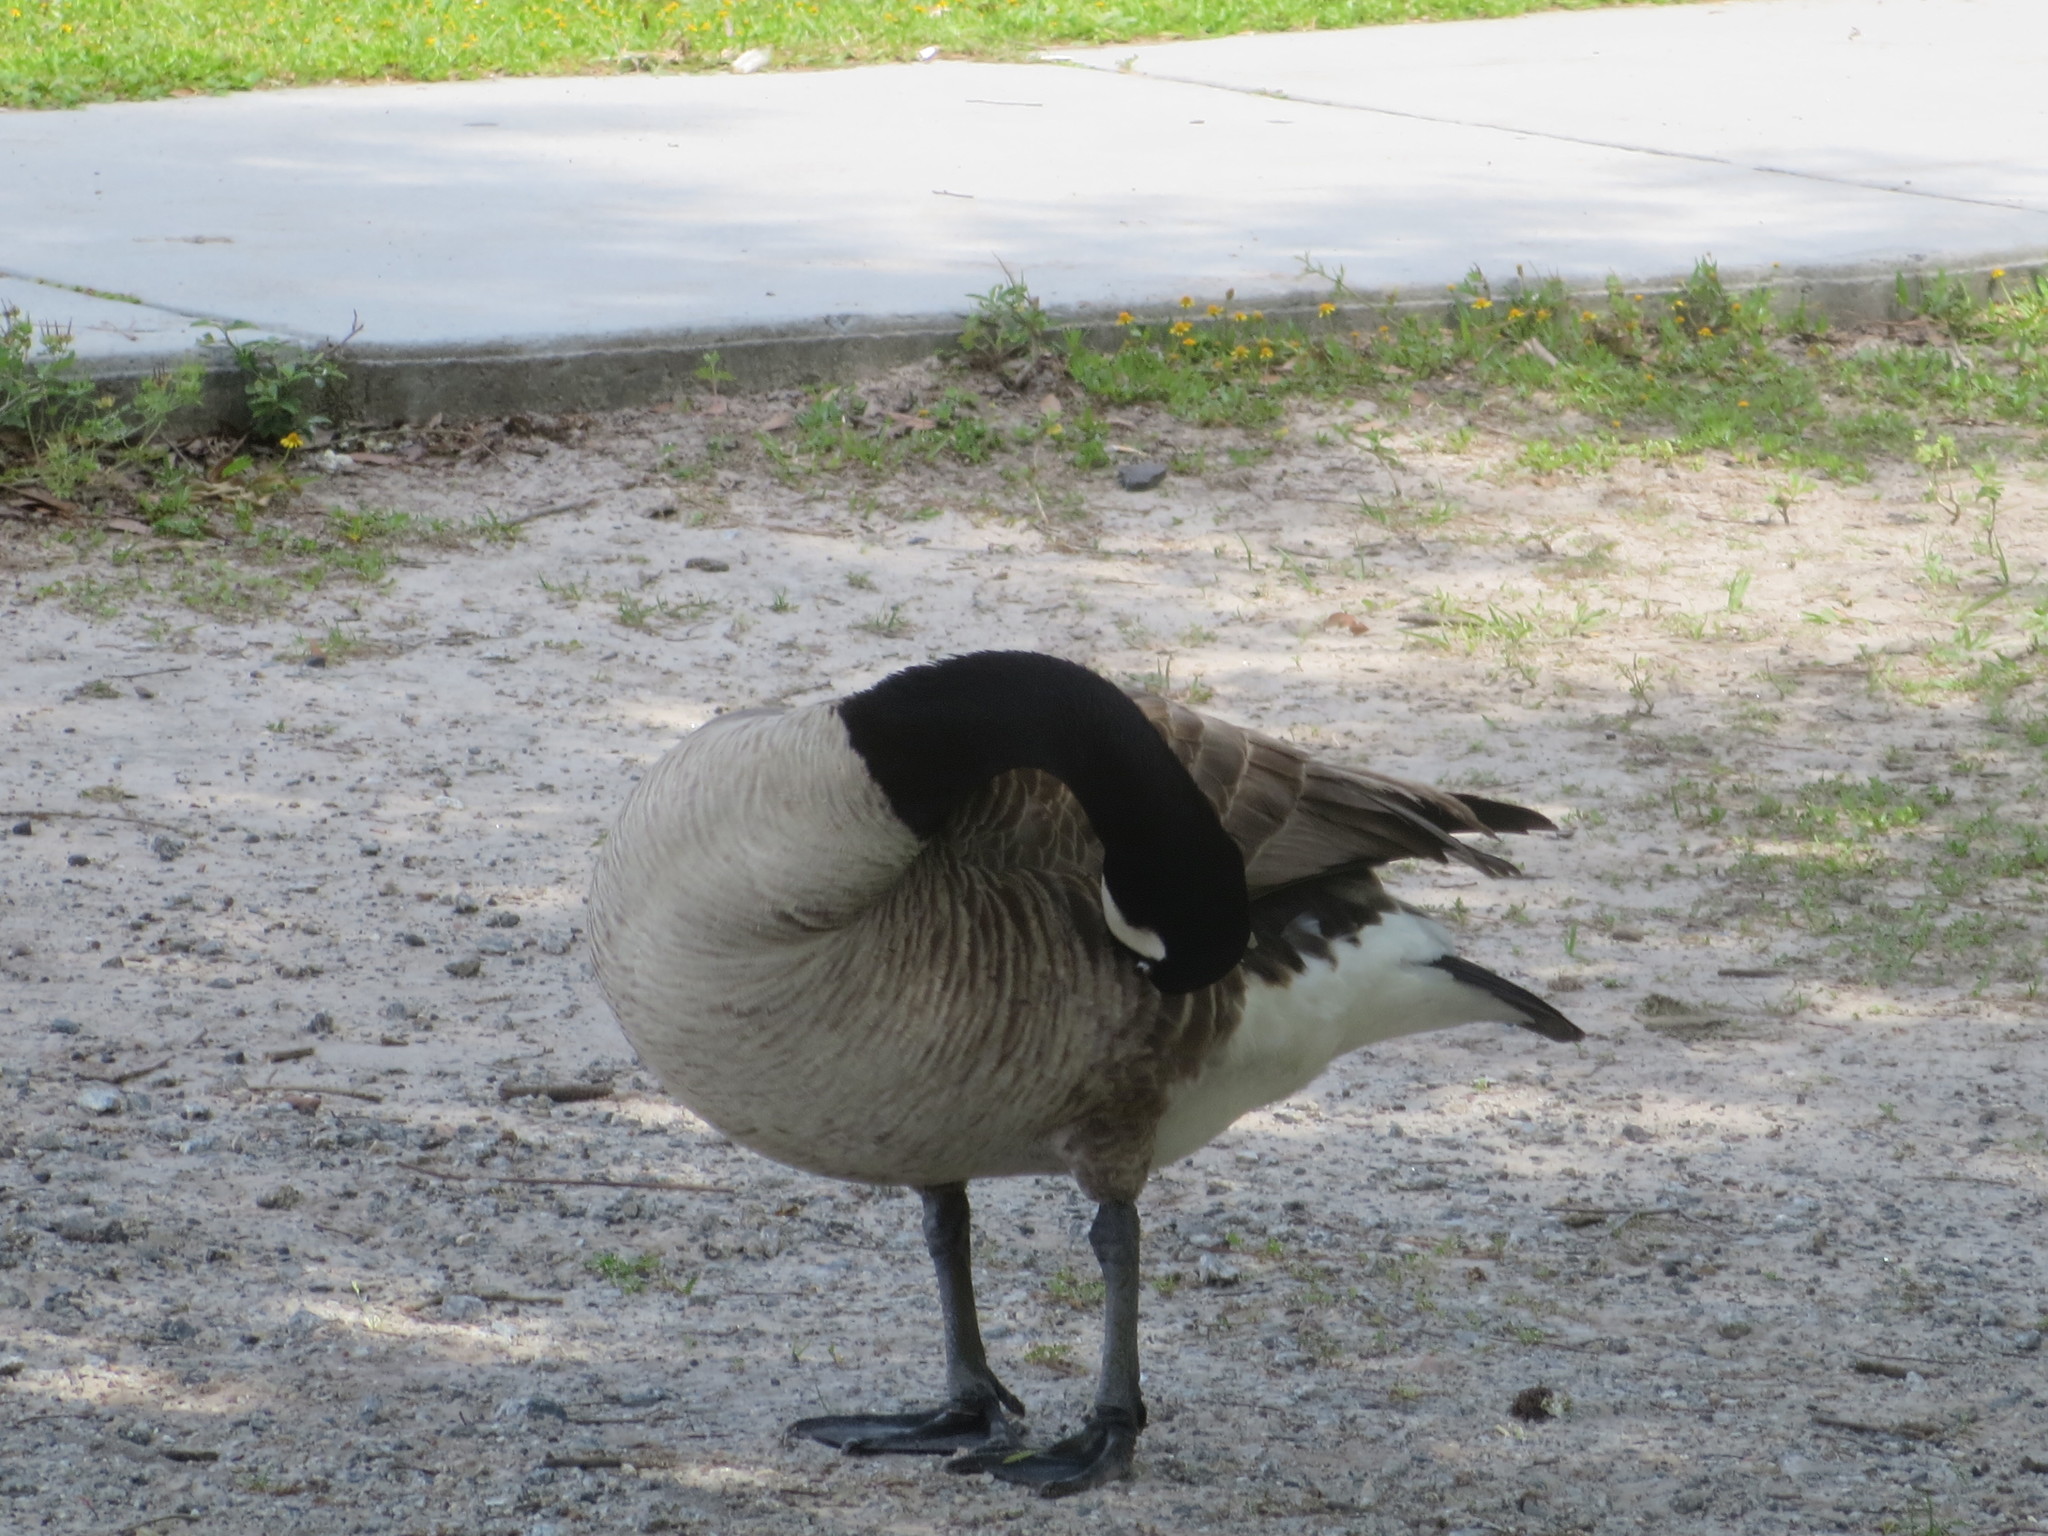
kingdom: Animalia
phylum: Chordata
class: Aves
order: Anseriformes
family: Anatidae
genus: Branta
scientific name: Branta canadensis
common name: Canada goose
